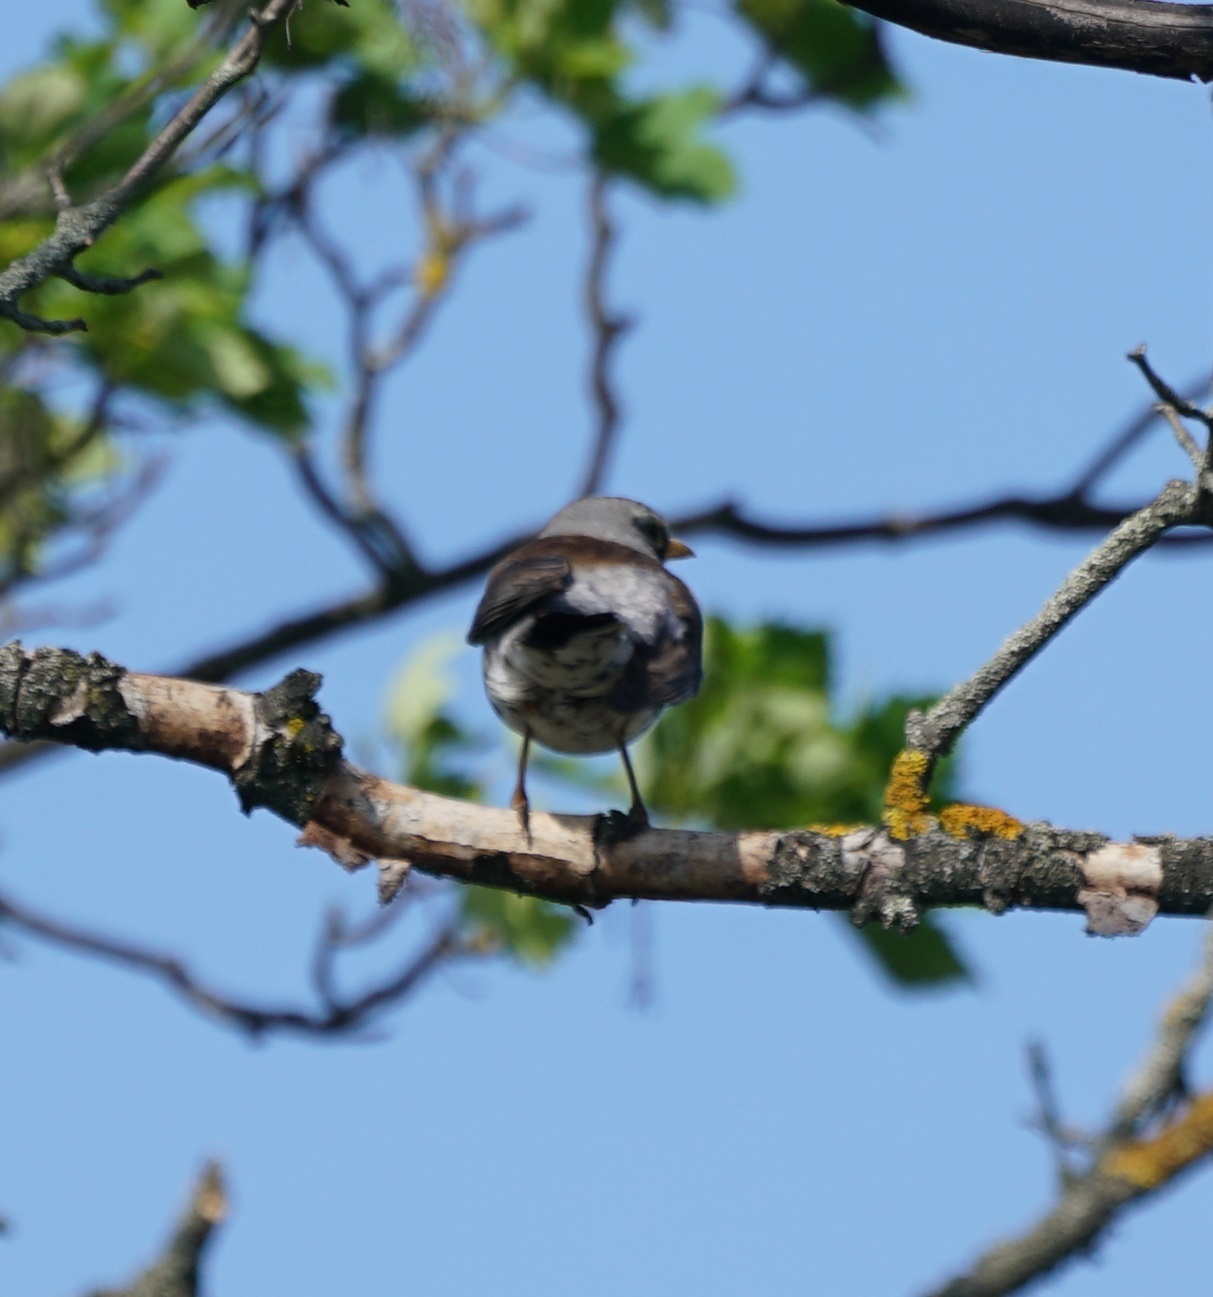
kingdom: Animalia
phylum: Chordata
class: Aves
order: Passeriformes
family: Turdidae
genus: Turdus
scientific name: Turdus pilaris
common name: Fieldfare
